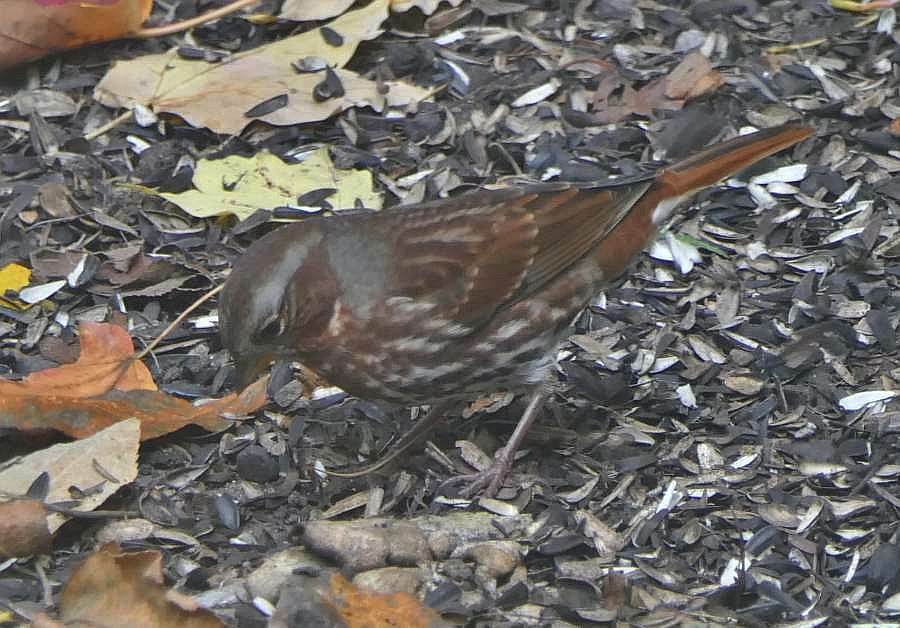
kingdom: Animalia
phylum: Chordata
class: Aves
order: Passeriformes
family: Passerellidae
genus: Passerella
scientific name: Passerella iliaca
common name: Fox sparrow
